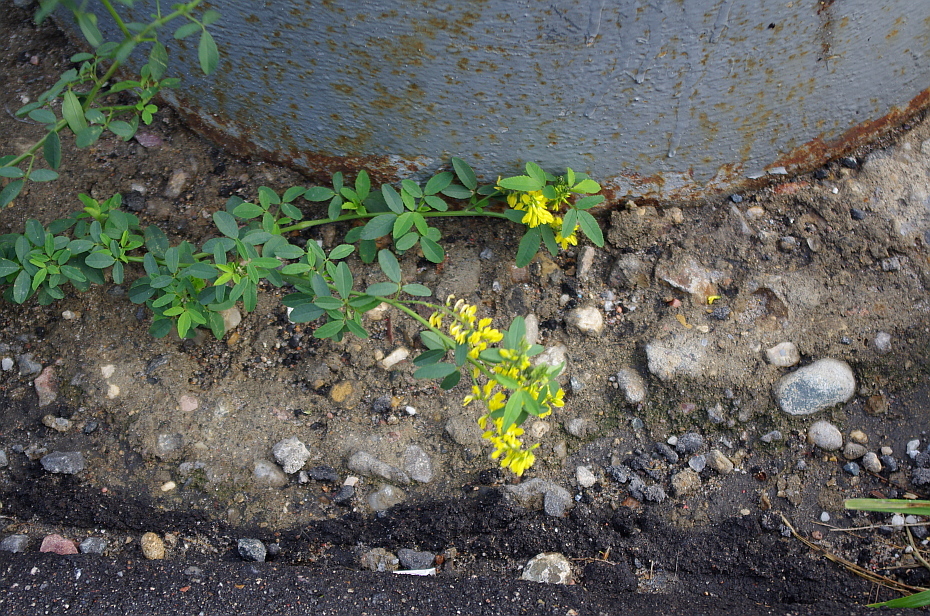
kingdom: Plantae
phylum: Tracheophyta
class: Magnoliopsida
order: Fabales
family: Fabaceae
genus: Melilotus
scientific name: Melilotus officinalis
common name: Sweetclover
